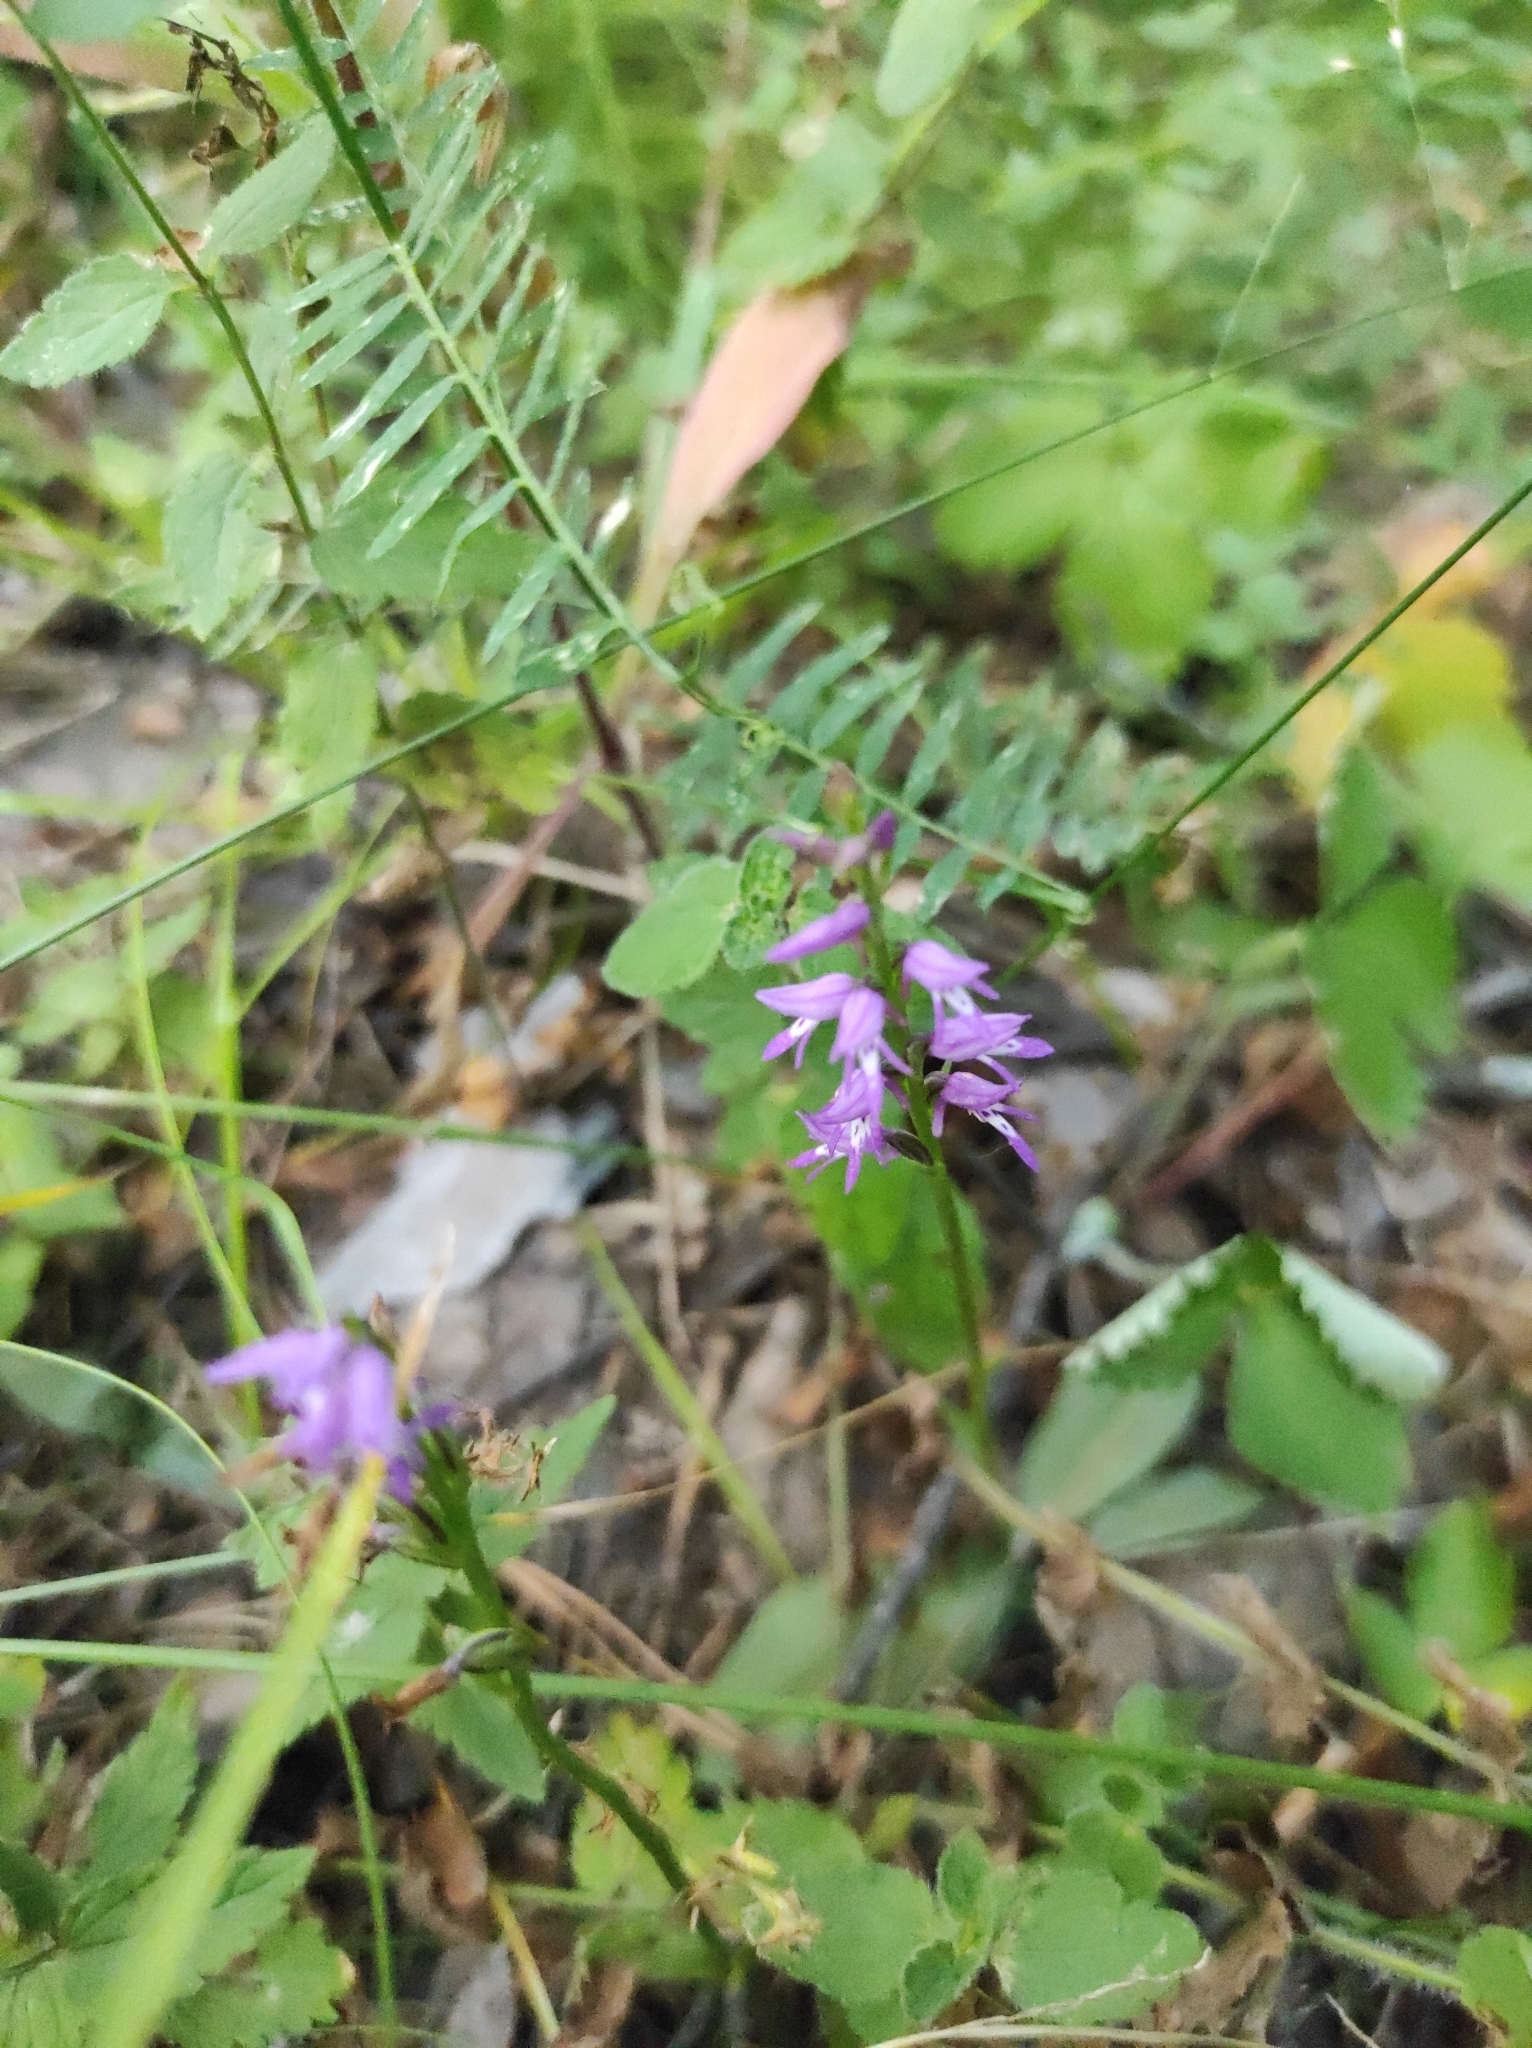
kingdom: Plantae
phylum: Tracheophyta
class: Liliopsida
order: Asparagales
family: Orchidaceae
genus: Hemipilia
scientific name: Hemipilia cucullata
